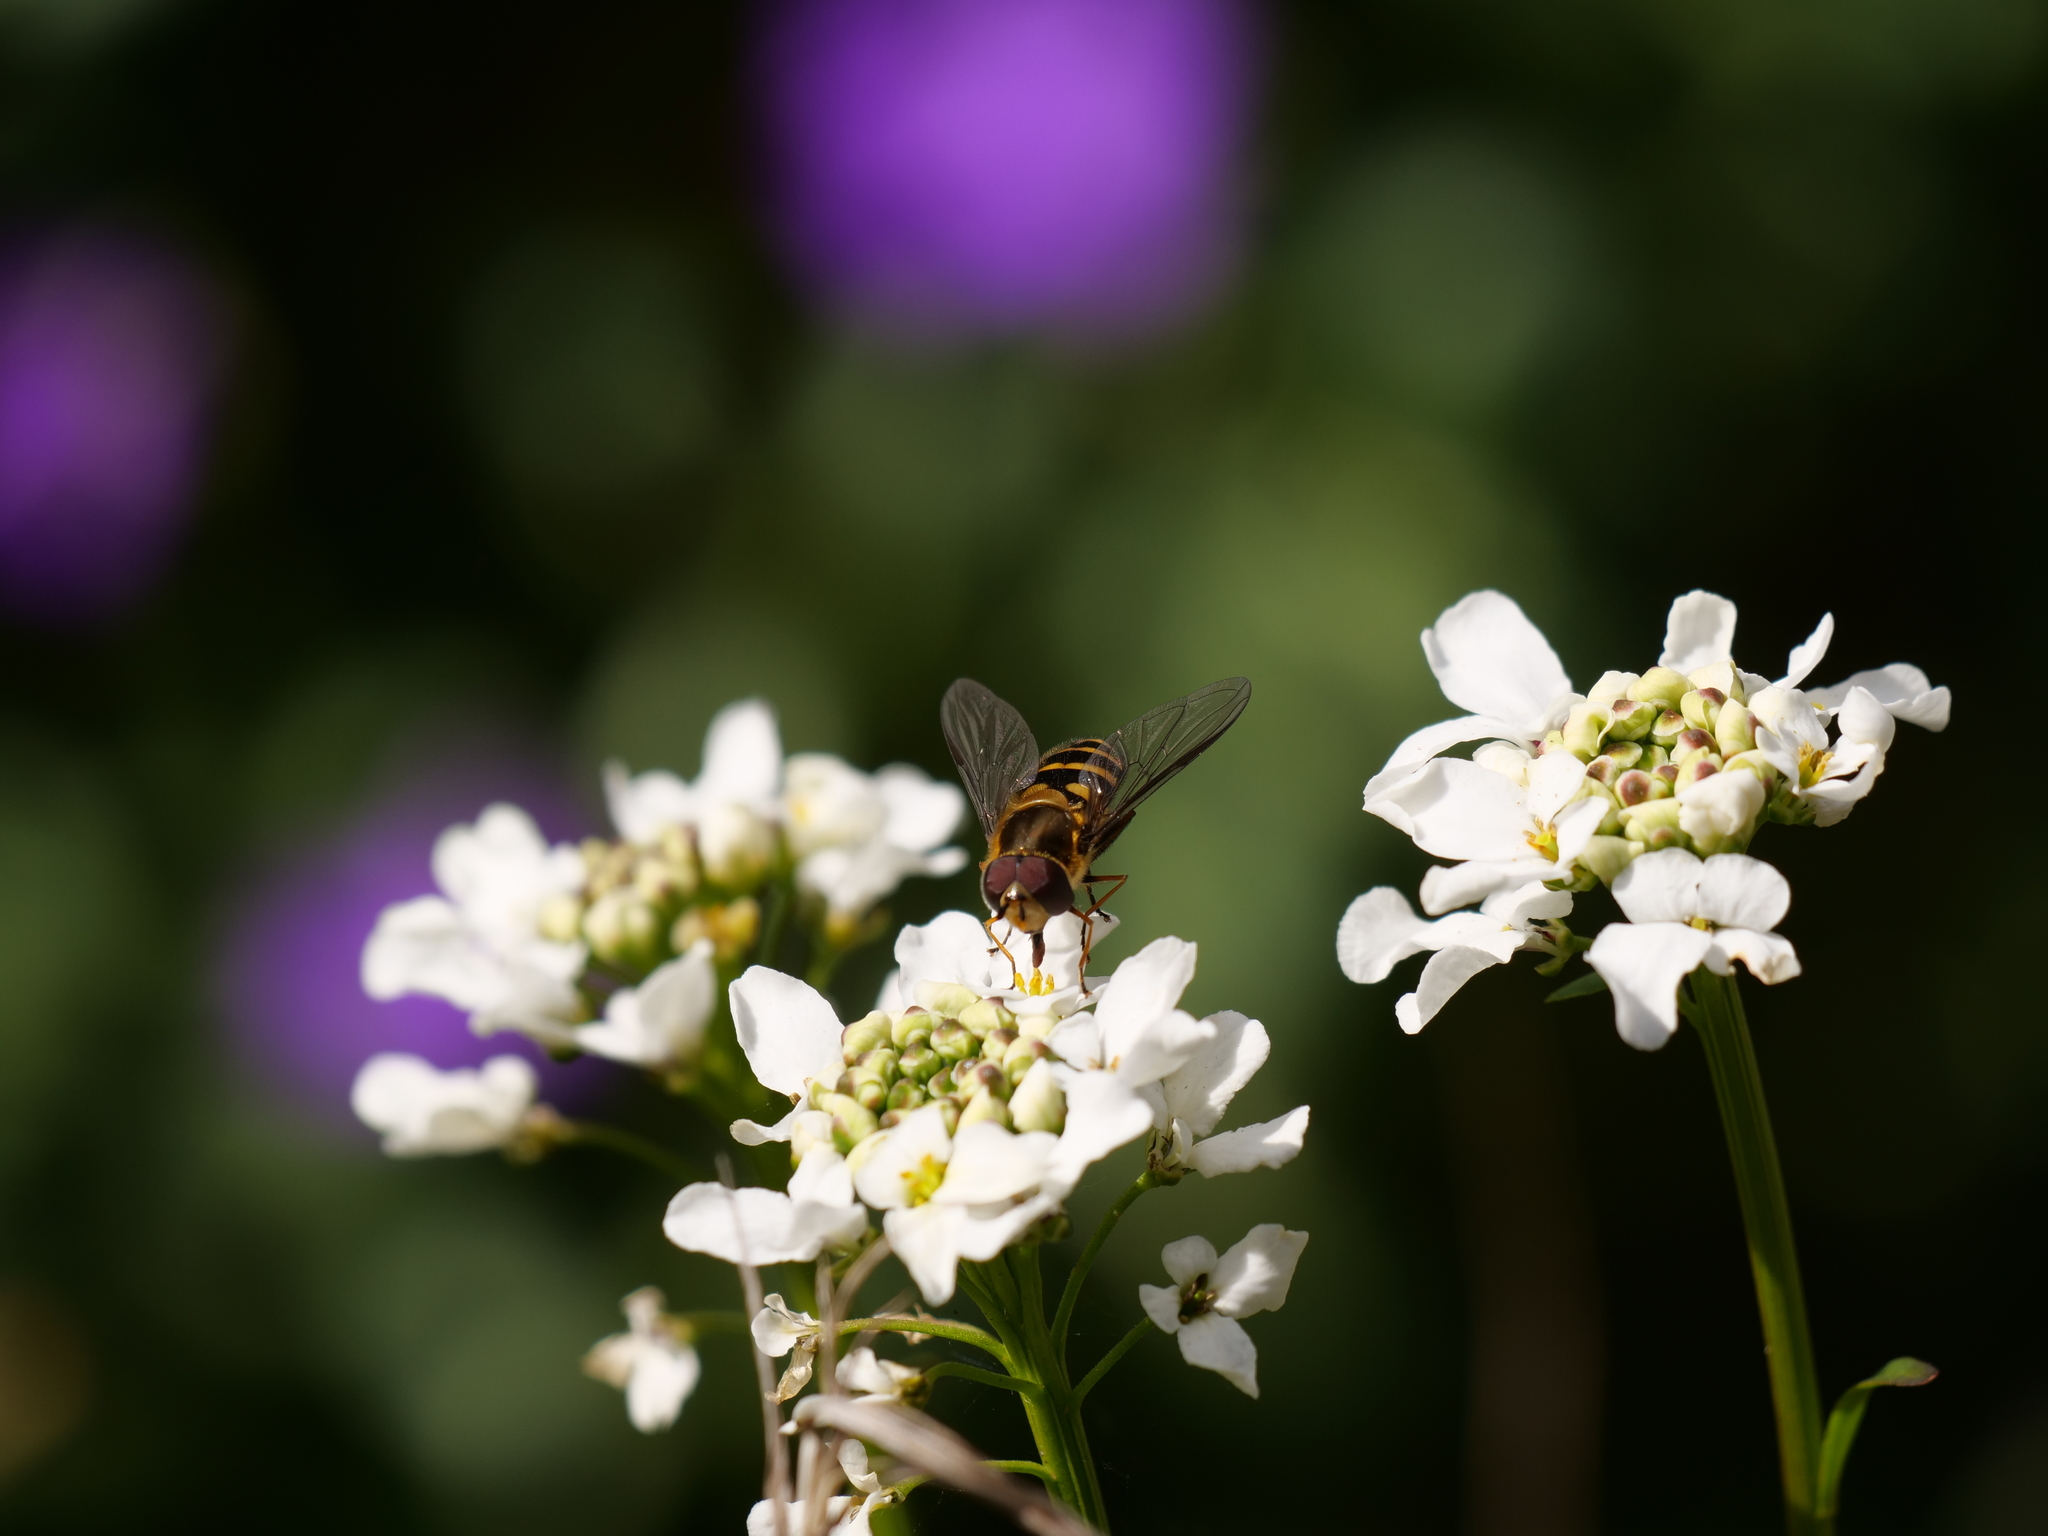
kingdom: Animalia
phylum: Arthropoda
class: Insecta
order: Diptera
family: Syrphidae
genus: Syrphus
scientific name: Syrphus
